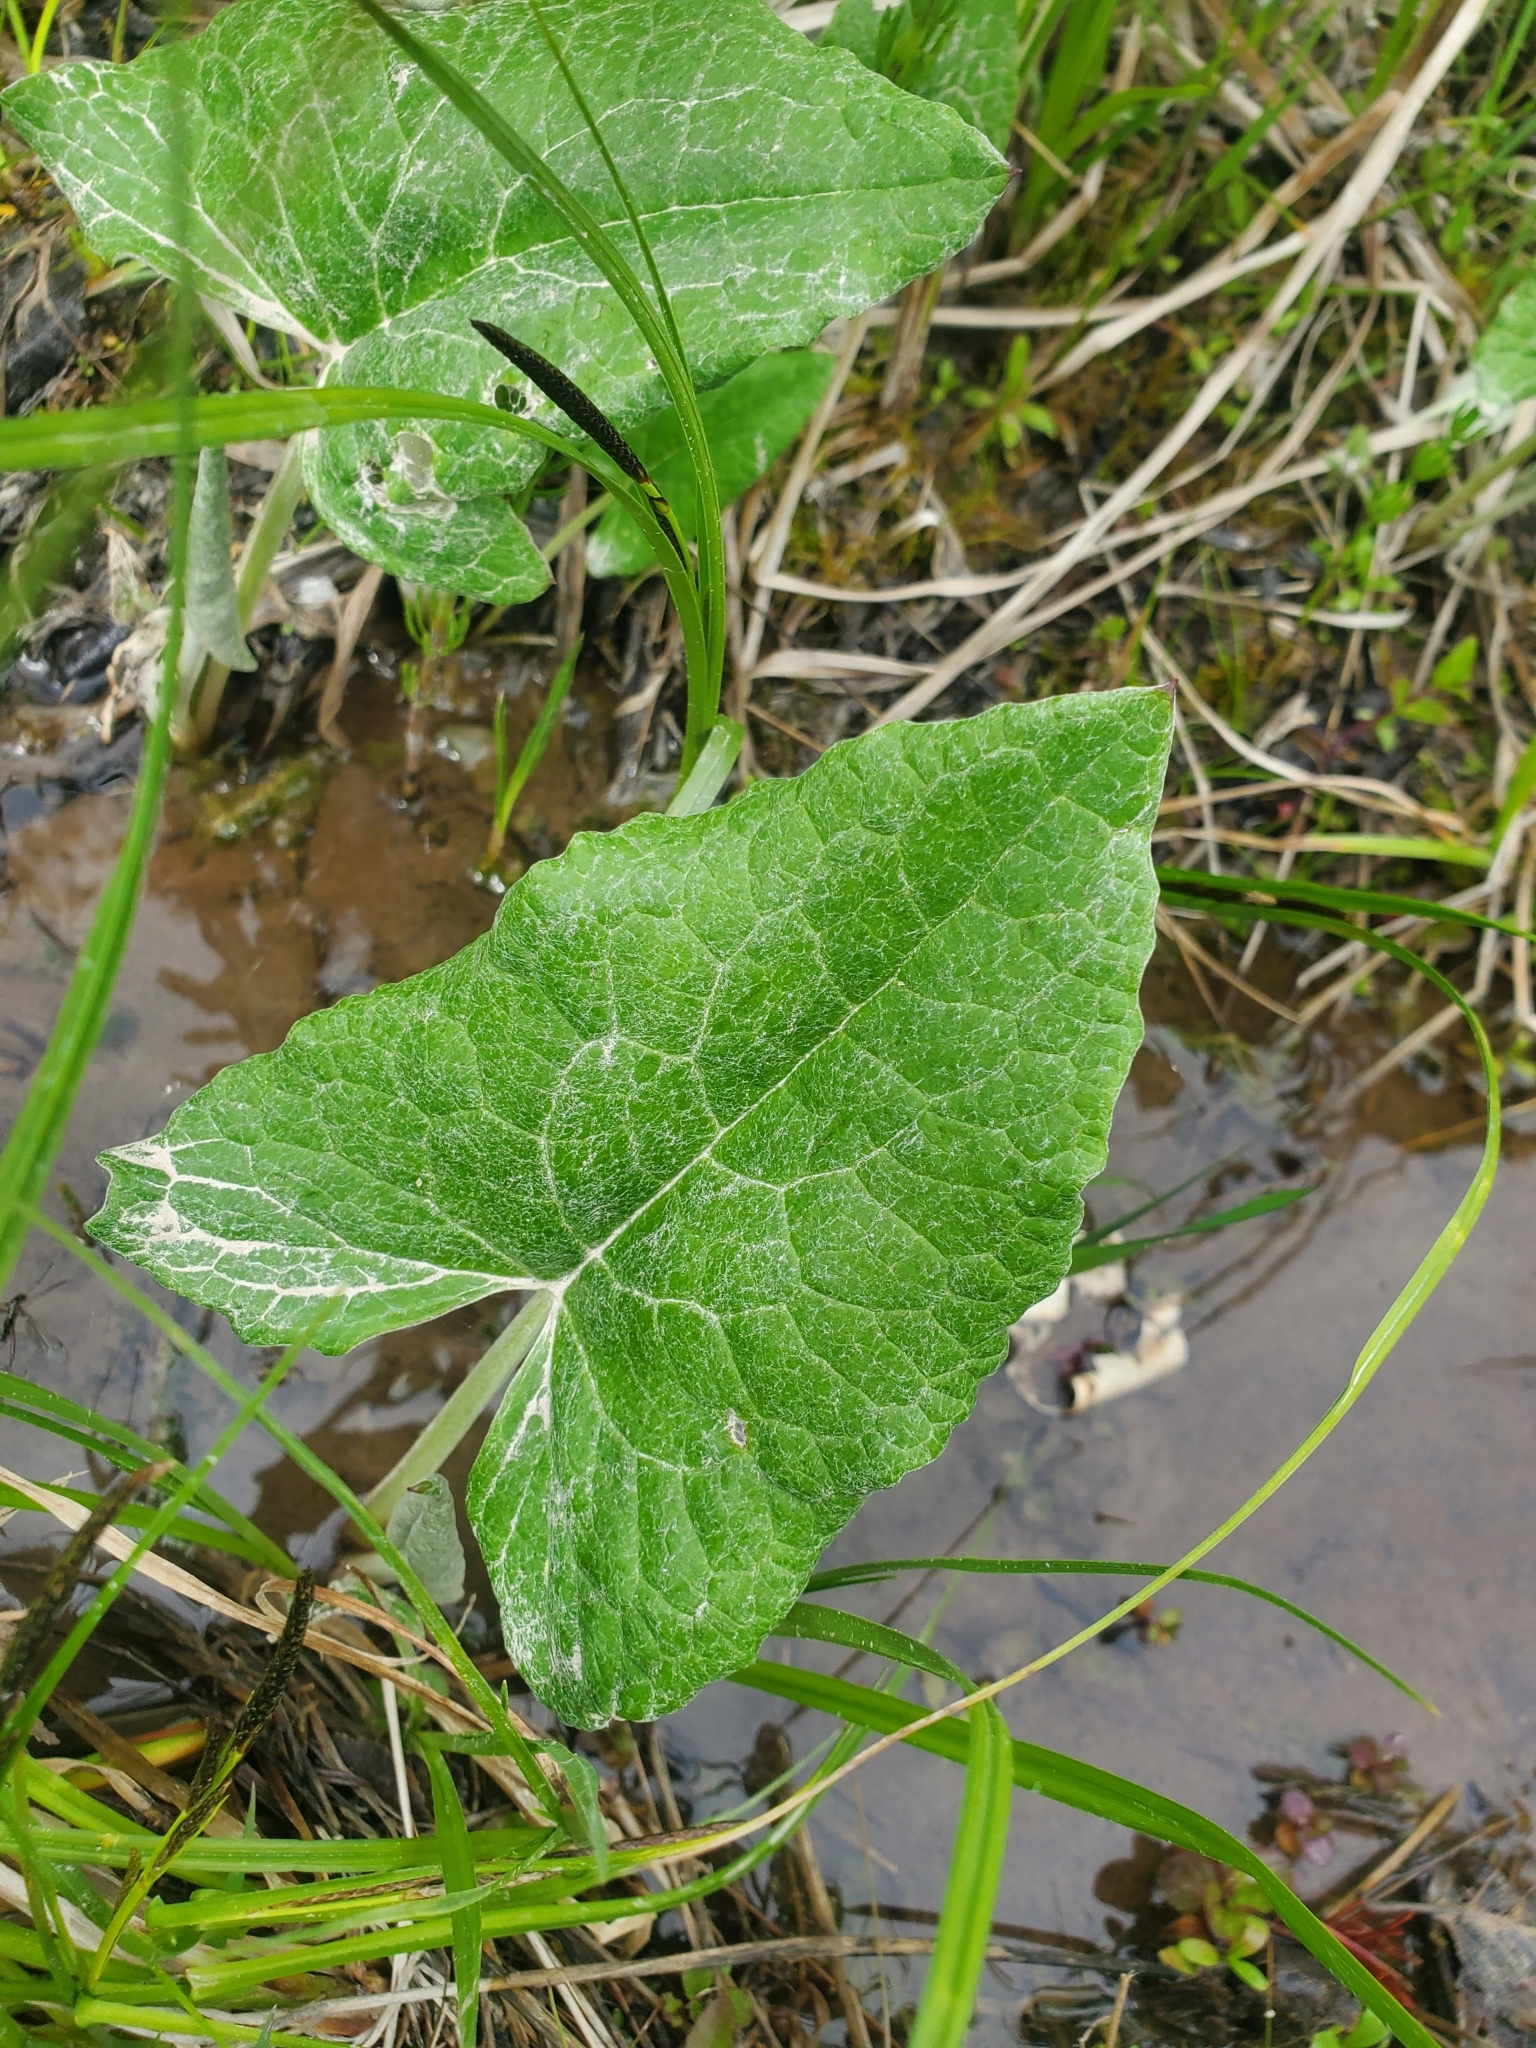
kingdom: Plantae
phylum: Tracheophyta
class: Magnoliopsida
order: Asterales
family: Asteraceae
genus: Petasites
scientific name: Petasites frigidus
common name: Arctic butterbur
